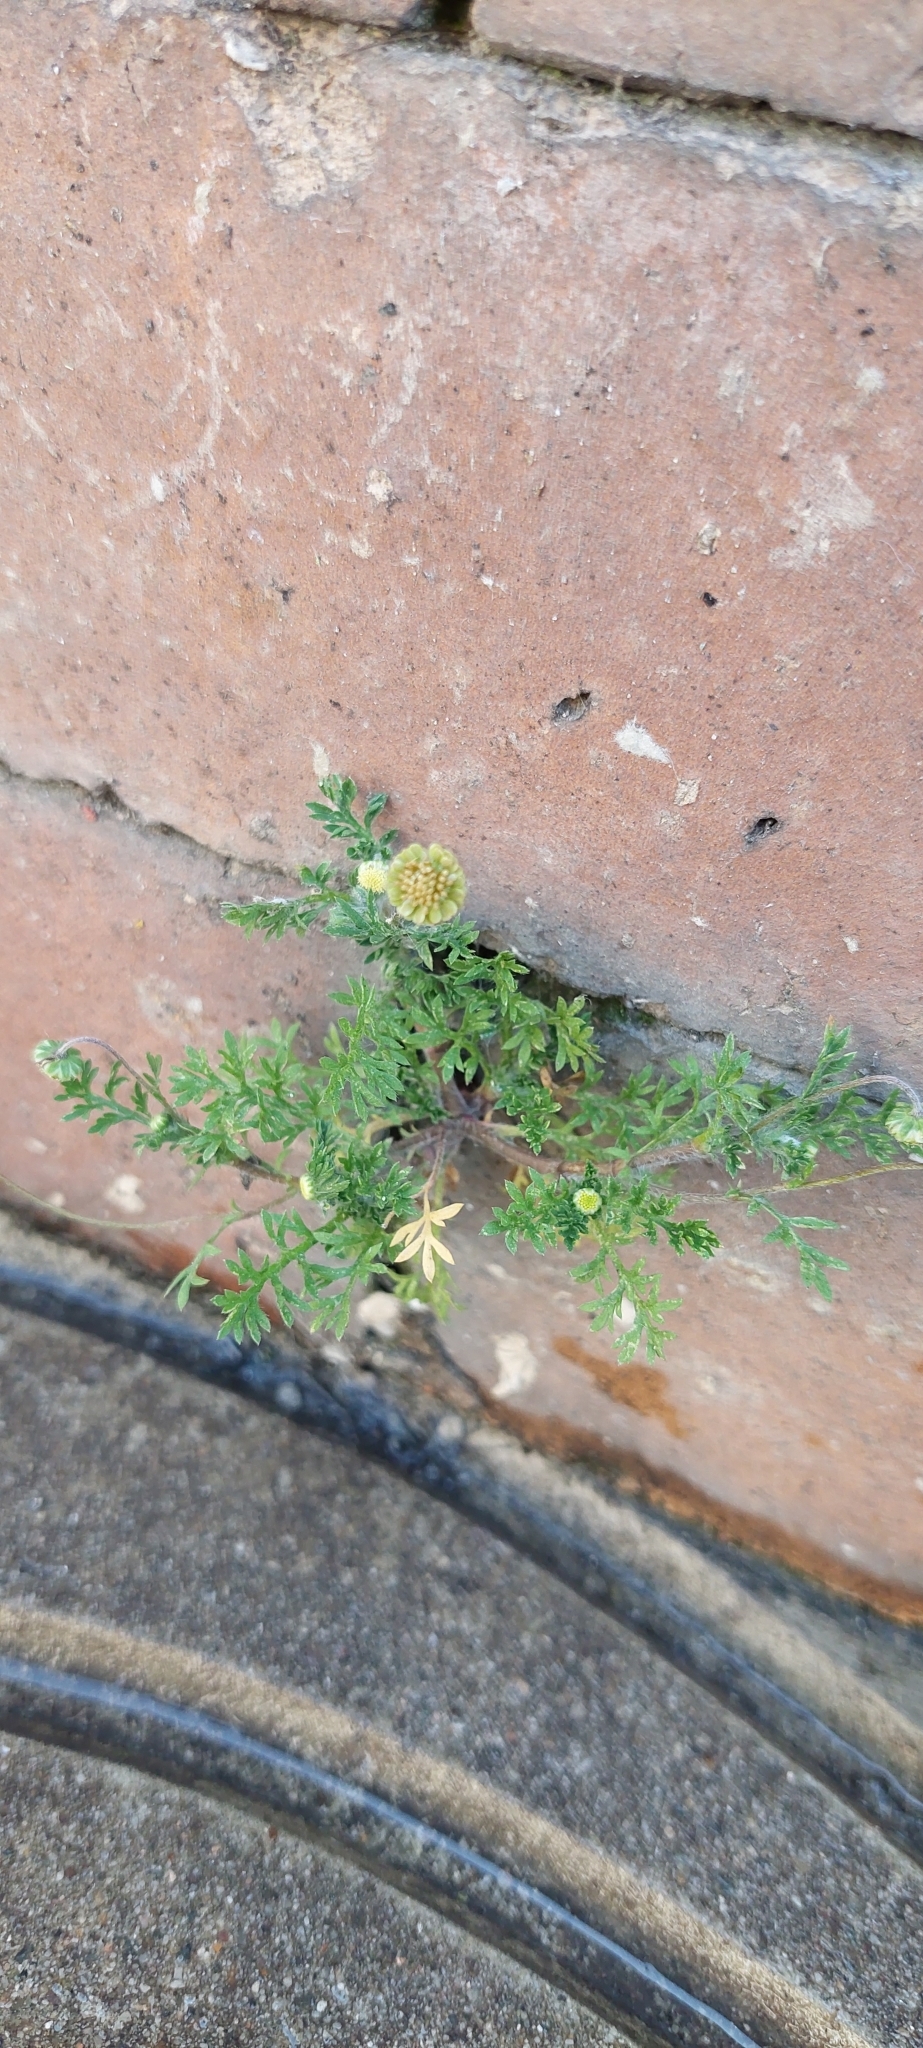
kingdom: Plantae
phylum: Tracheophyta
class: Magnoliopsida
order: Asterales
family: Asteraceae
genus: Cotula
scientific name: Cotula australis
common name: Australian waterbuttons
